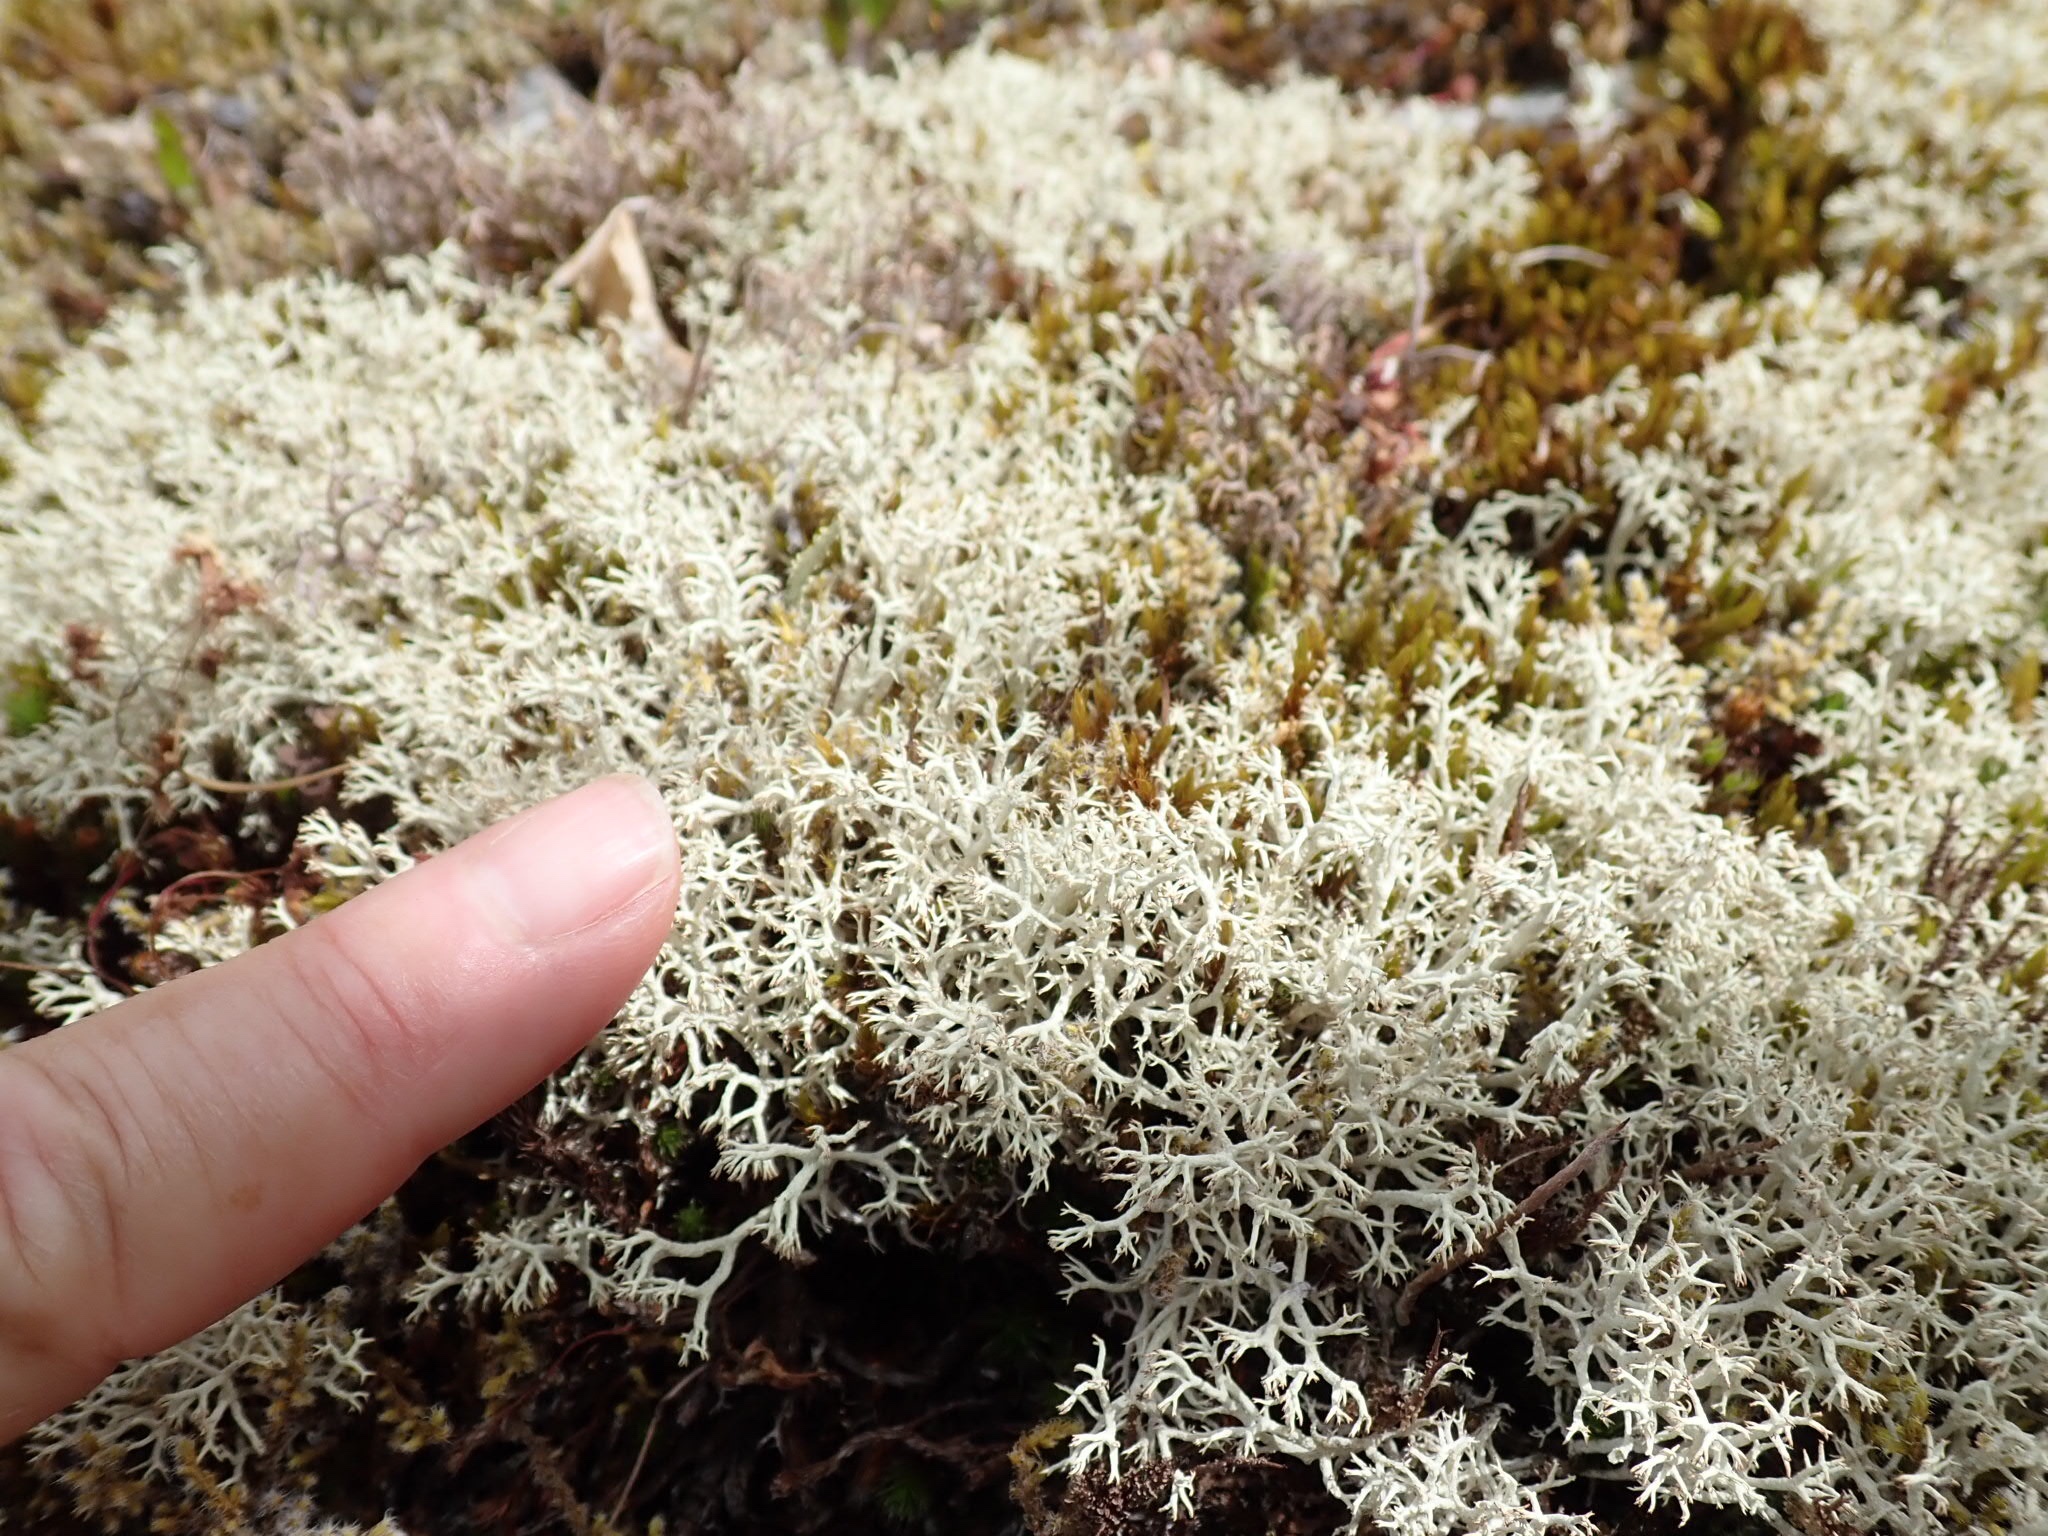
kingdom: Fungi
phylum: Ascomycota
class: Lecanoromycetes
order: Lecanorales
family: Cladoniaceae
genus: Cladonia
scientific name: Cladonia rangiferina
